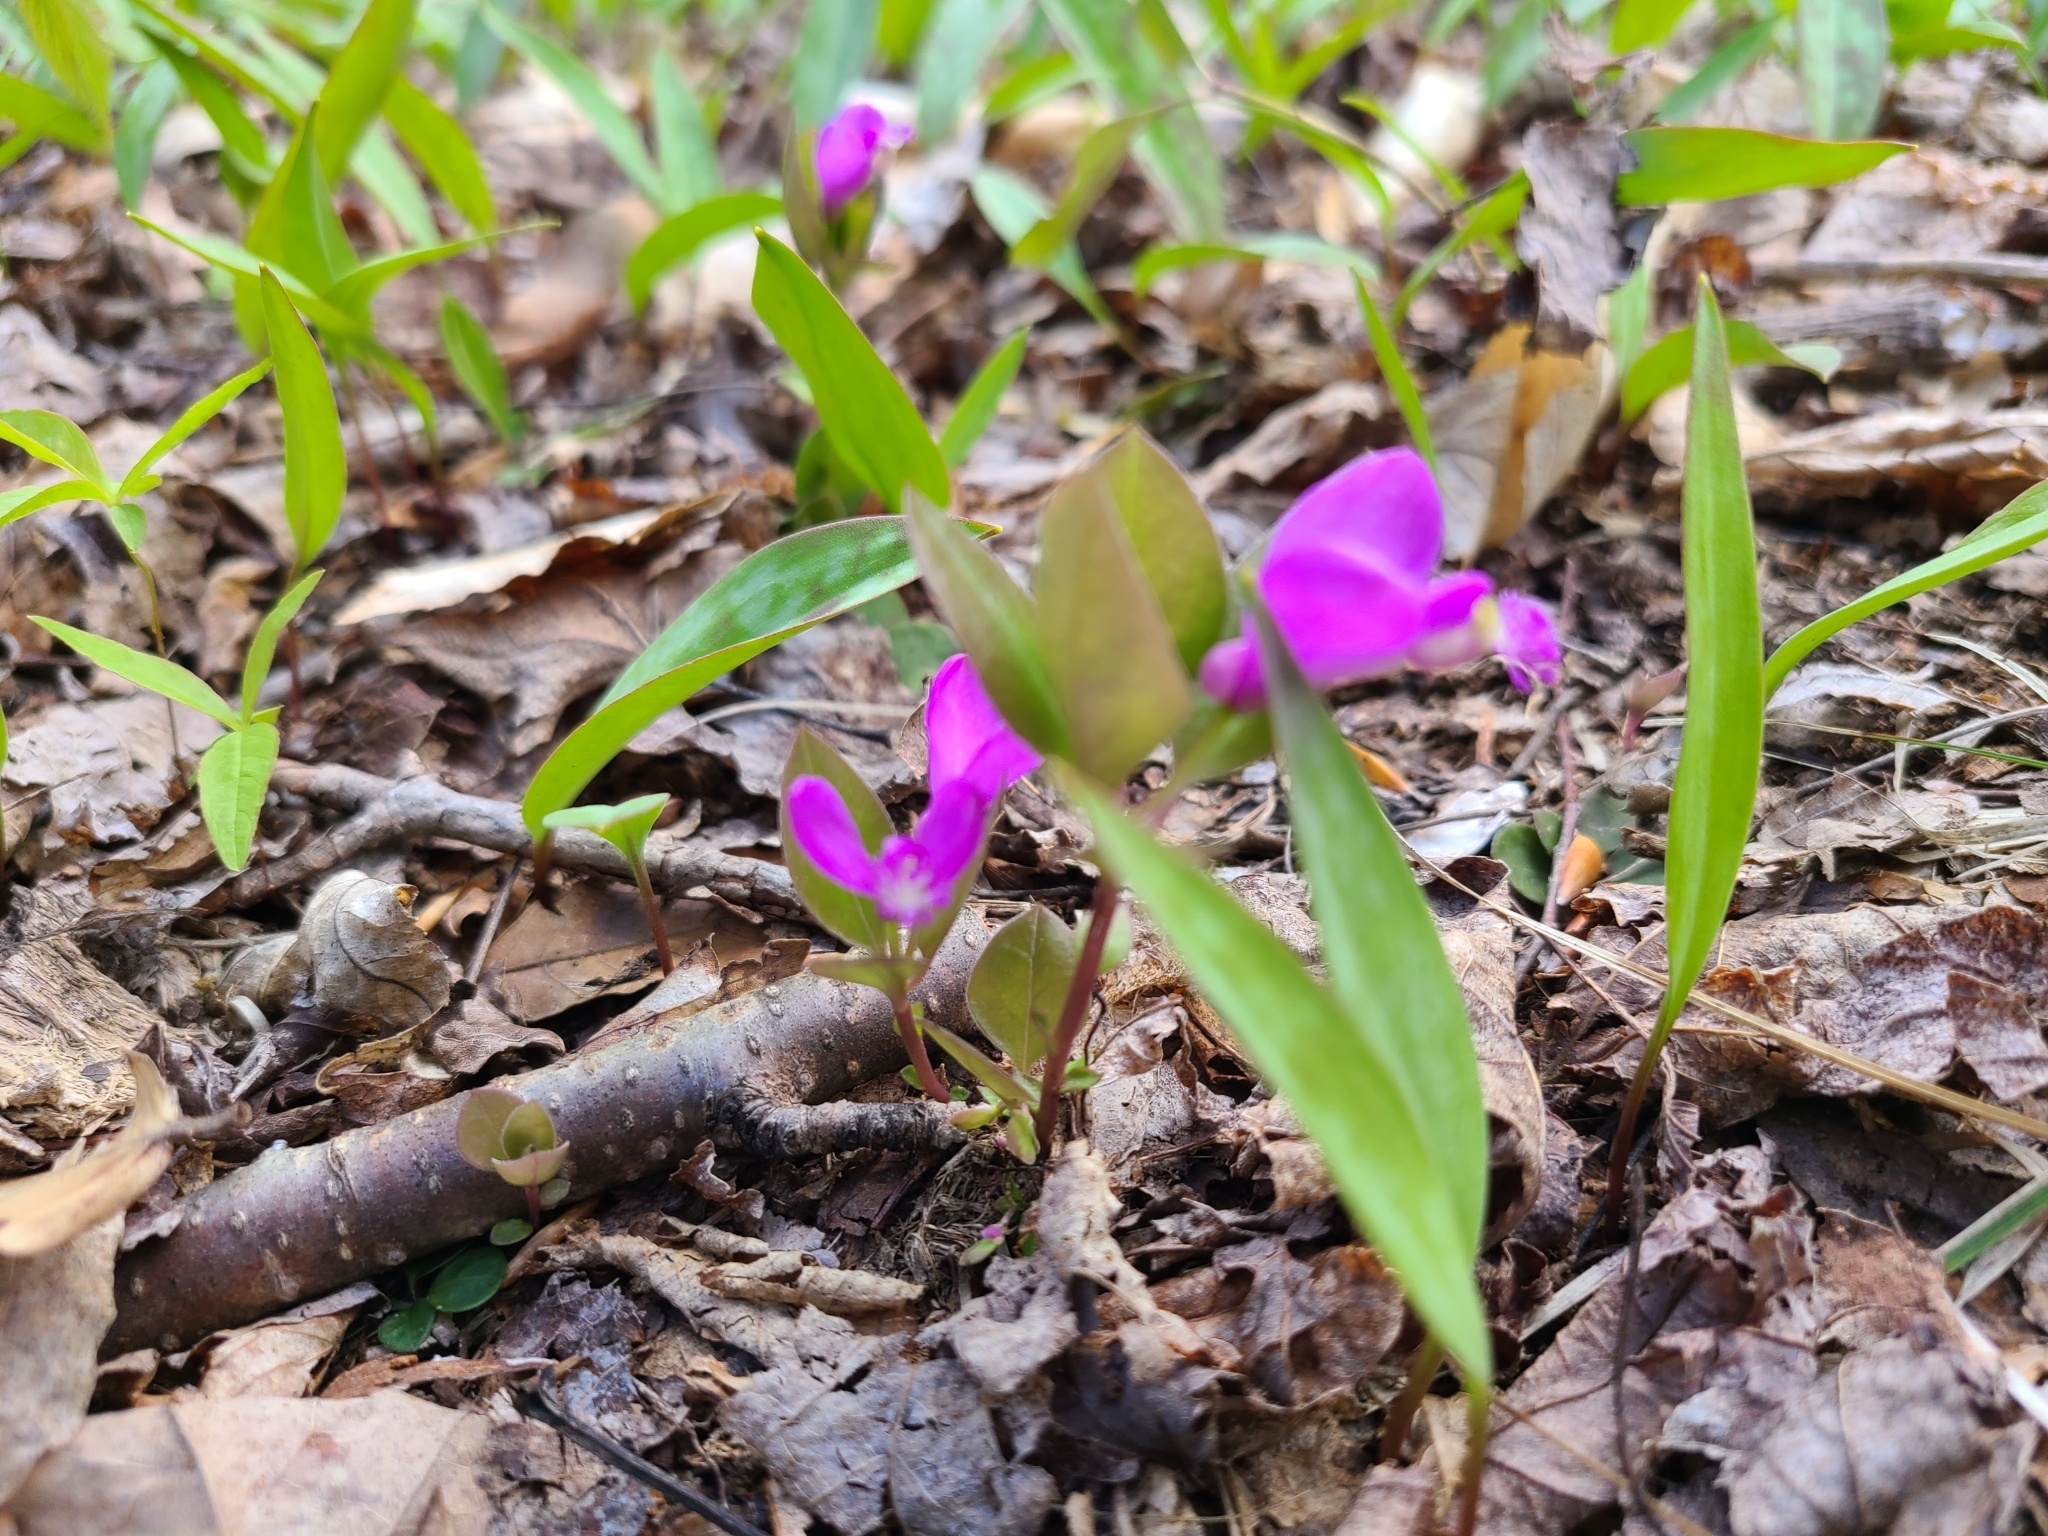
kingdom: Plantae
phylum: Tracheophyta
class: Magnoliopsida
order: Fabales
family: Polygalaceae
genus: Polygaloides
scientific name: Polygaloides paucifolia
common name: Bird-on-the-wing
